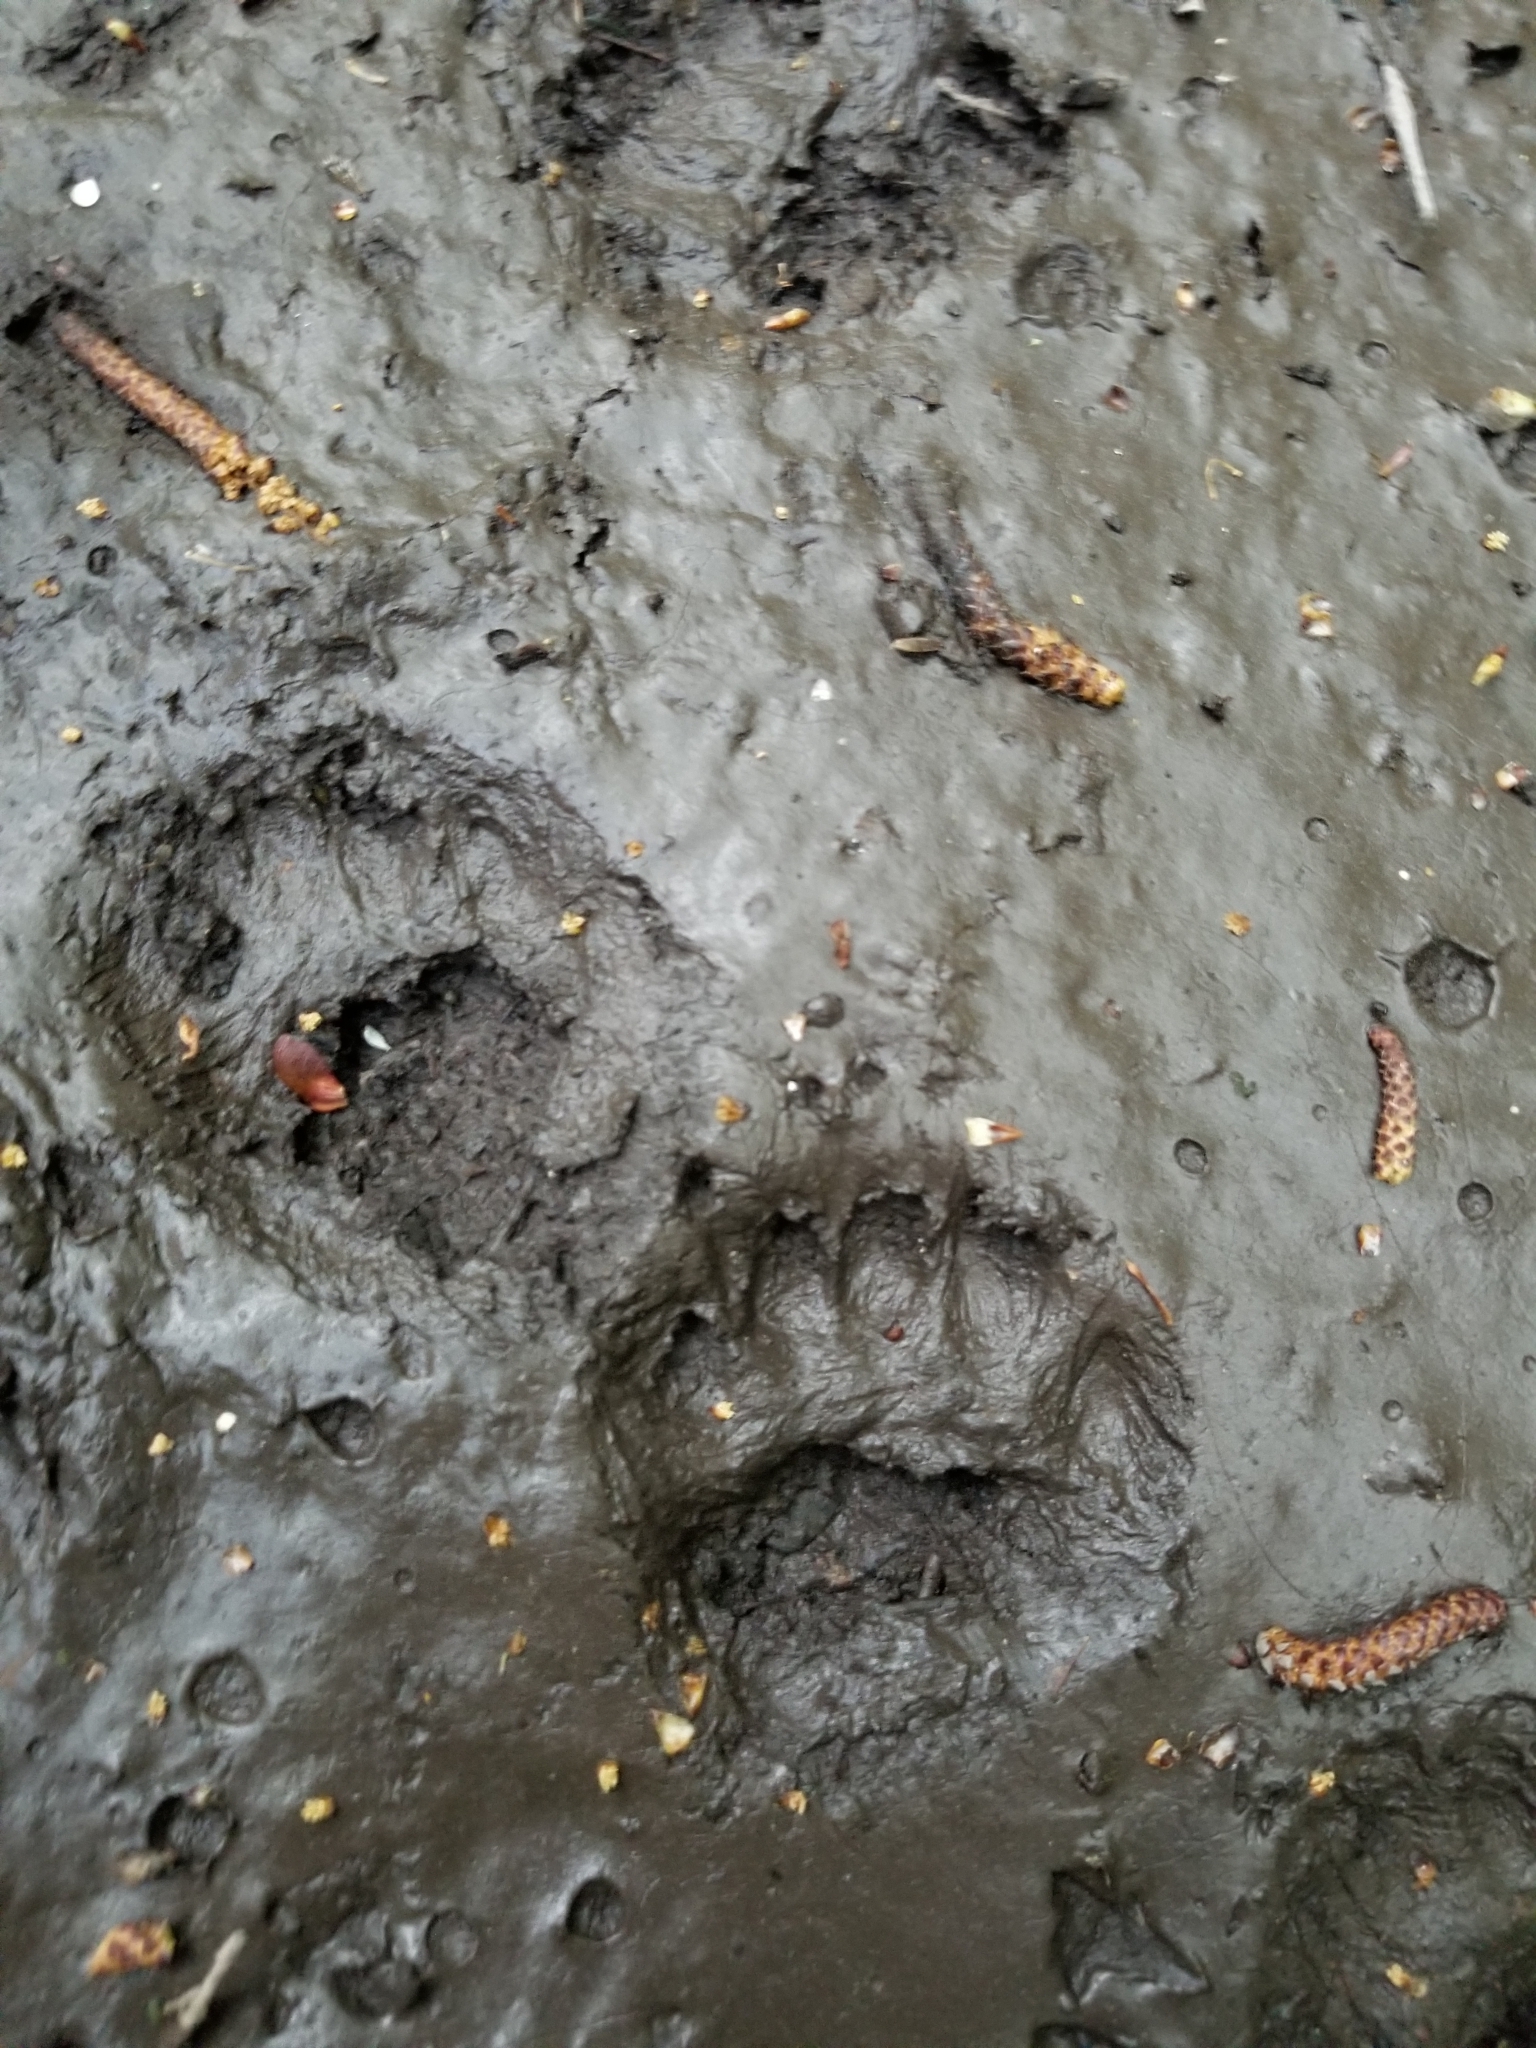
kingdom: Animalia
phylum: Chordata
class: Mammalia
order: Carnivora
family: Ursidae
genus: Ursus
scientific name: Ursus americanus
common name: American black bear
